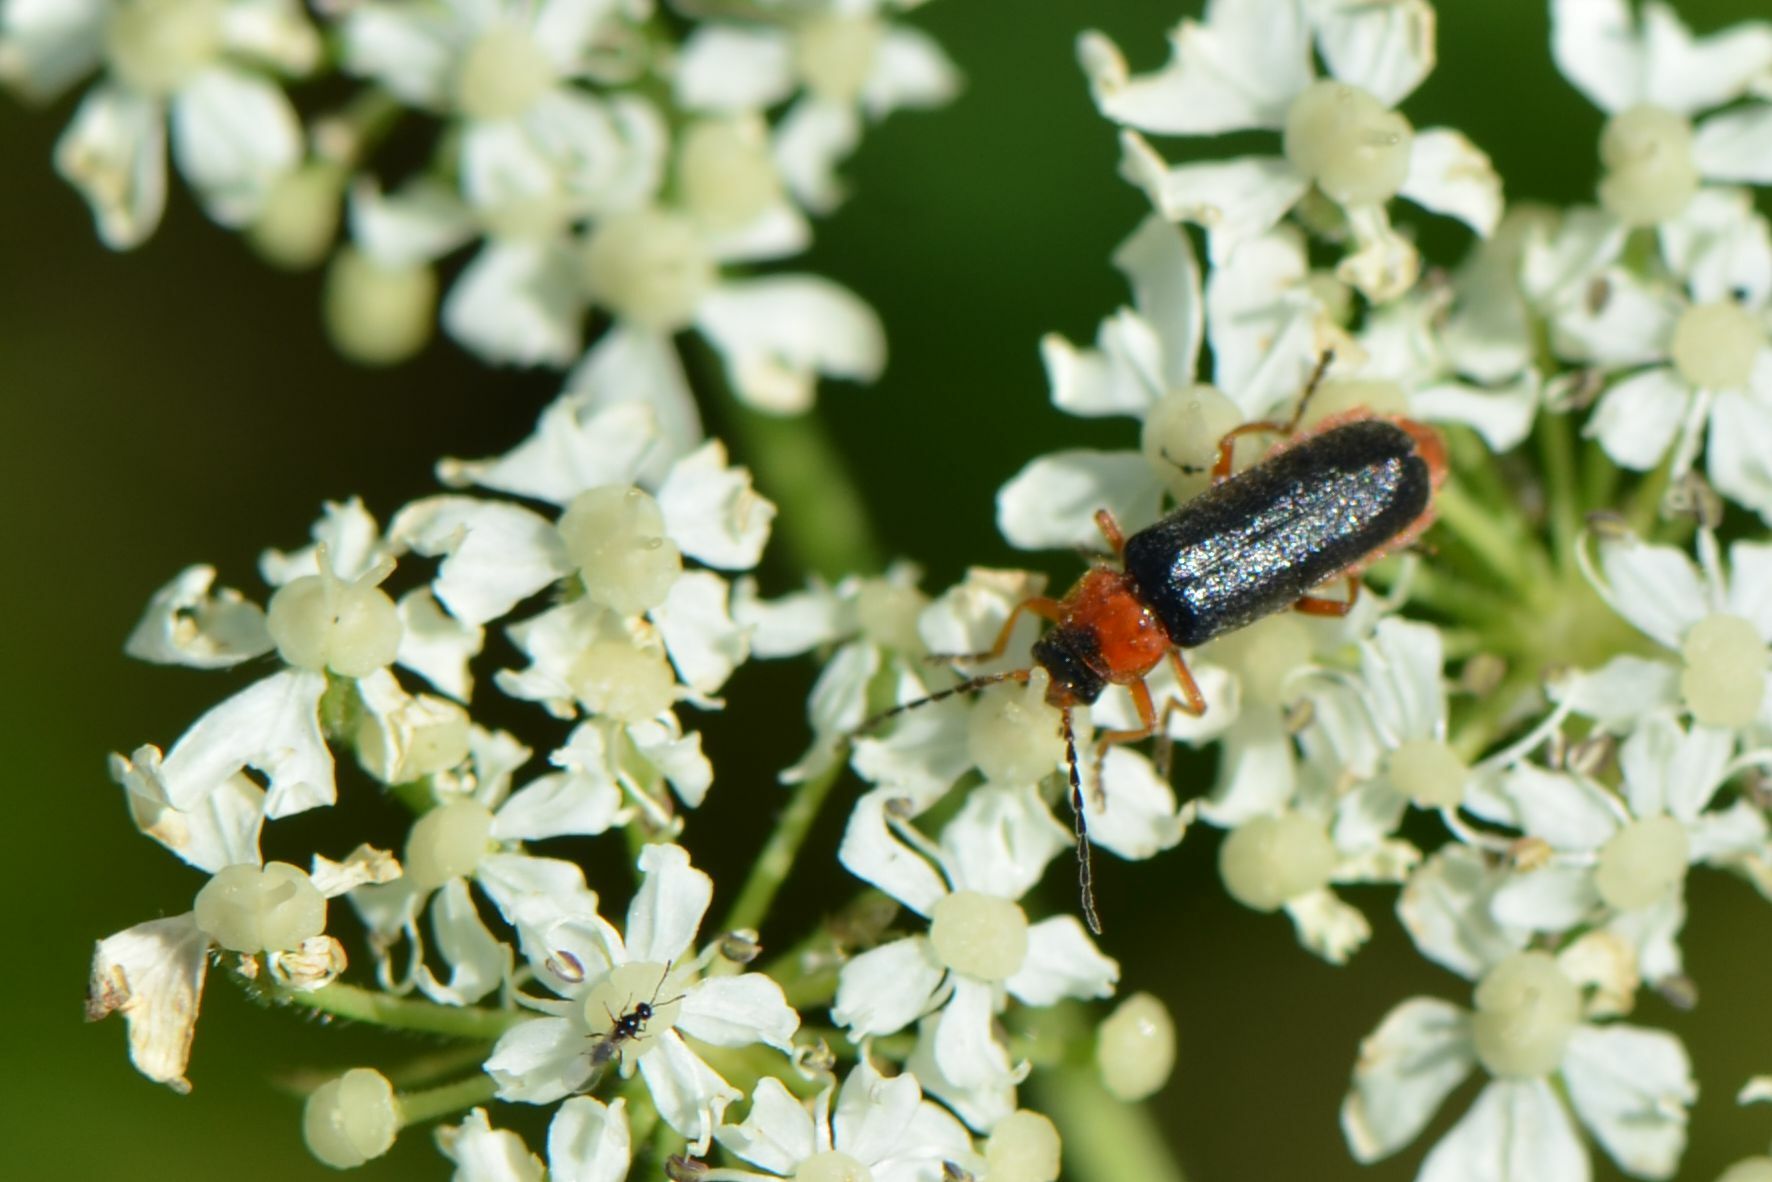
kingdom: Animalia
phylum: Arthropoda
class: Insecta
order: Coleoptera
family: Cantharidae
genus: Cantharis
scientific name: Cantharis flavilabris
